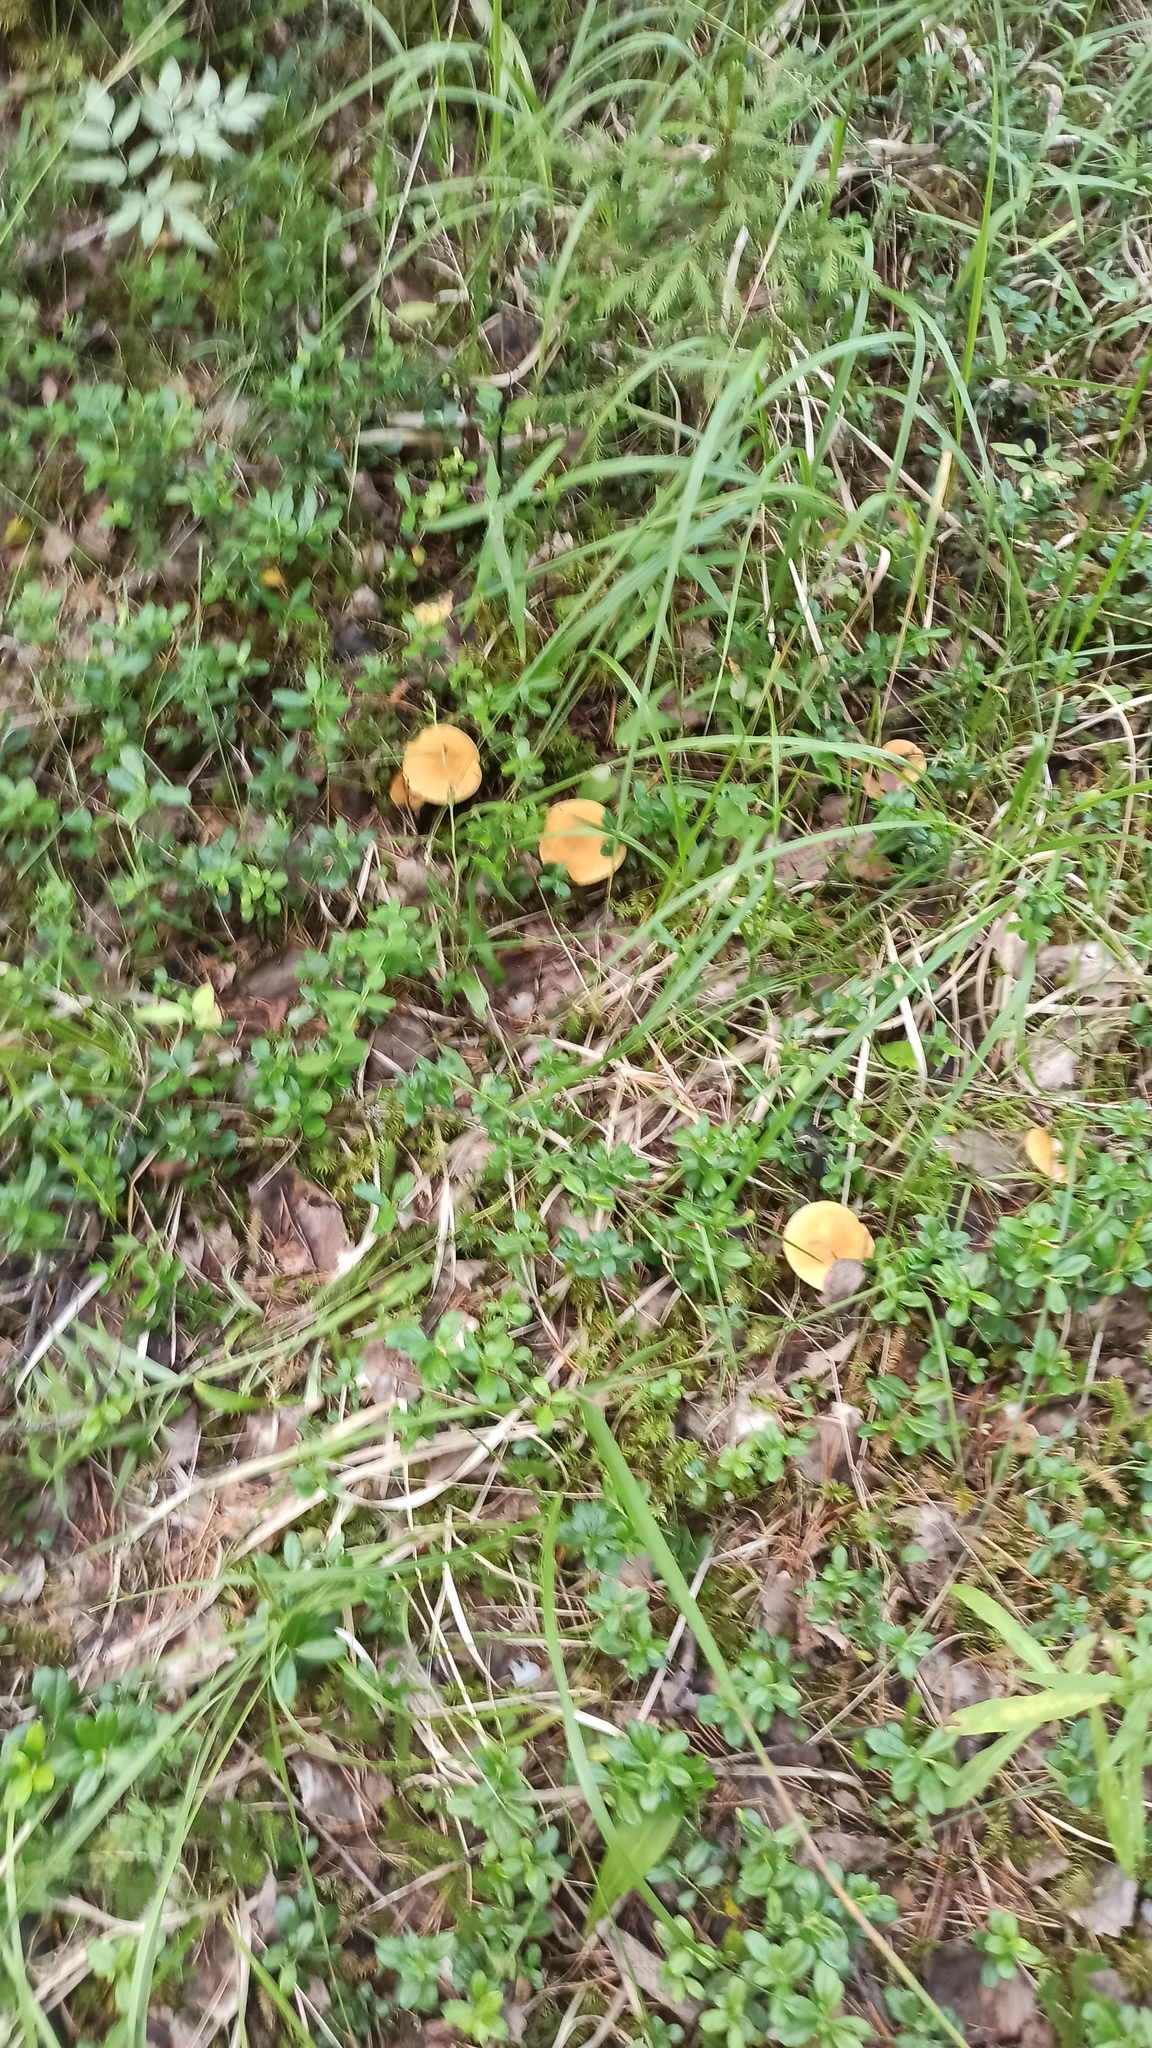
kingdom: Fungi
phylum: Basidiomycota
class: Agaricomycetes
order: Boletales
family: Suillaceae
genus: Suillus
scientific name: Suillus variegatus
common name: Velvet bolete
